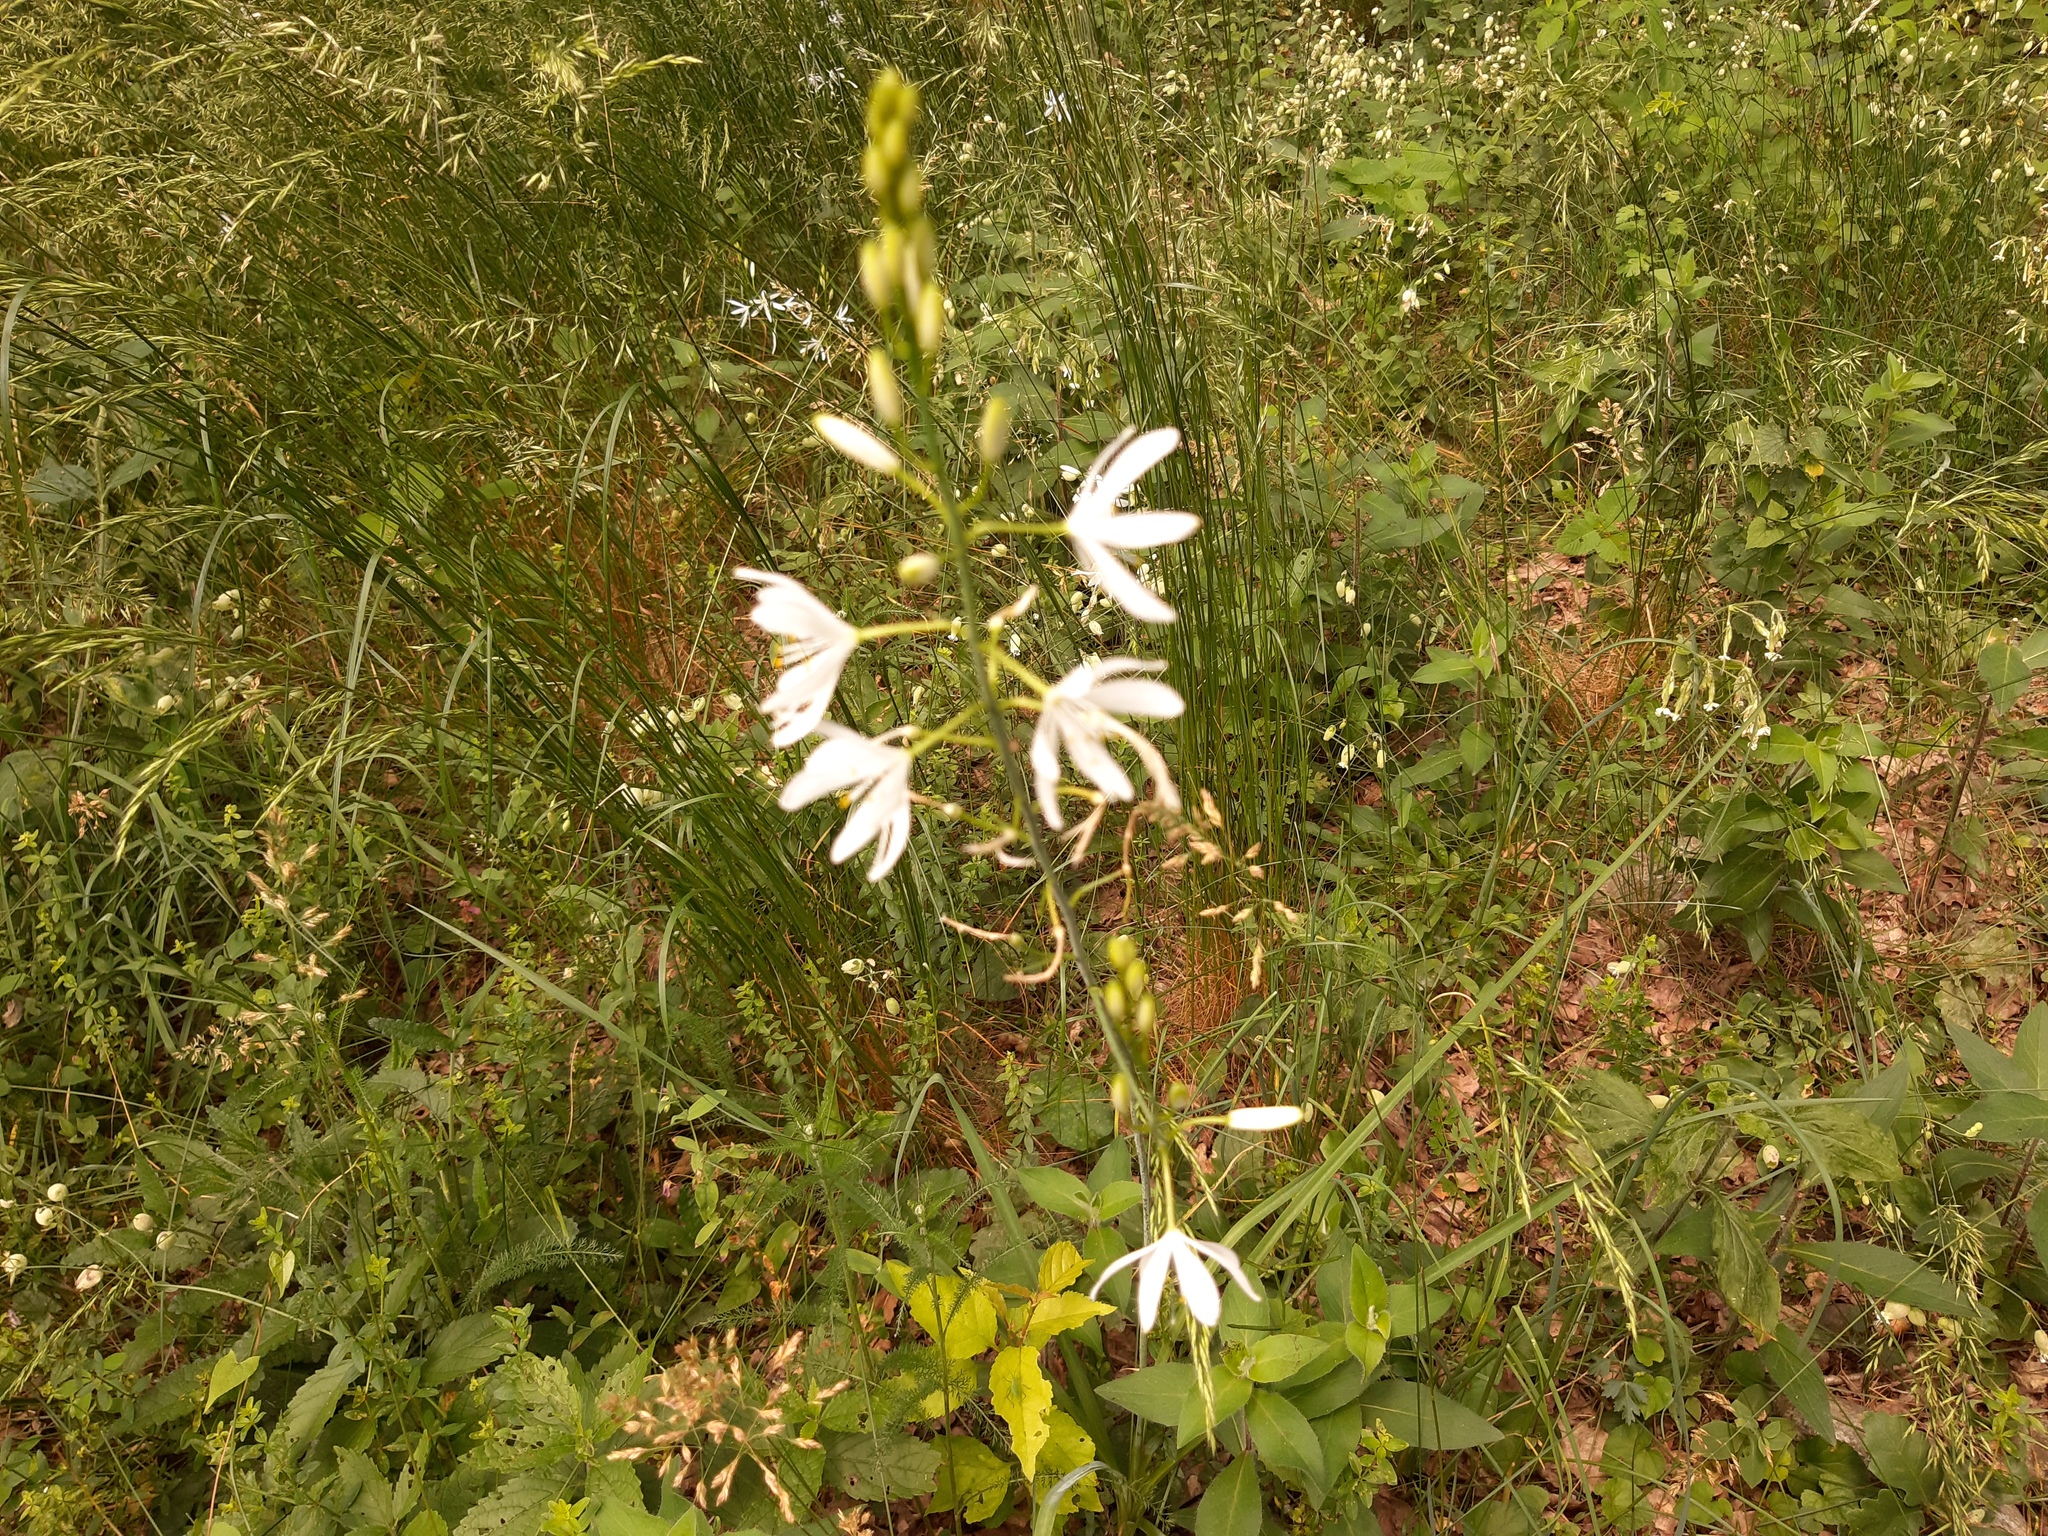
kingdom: Plantae
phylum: Tracheophyta
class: Liliopsida
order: Asparagales
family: Asparagaceae
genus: Anthericum
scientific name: Anthericum liliago
